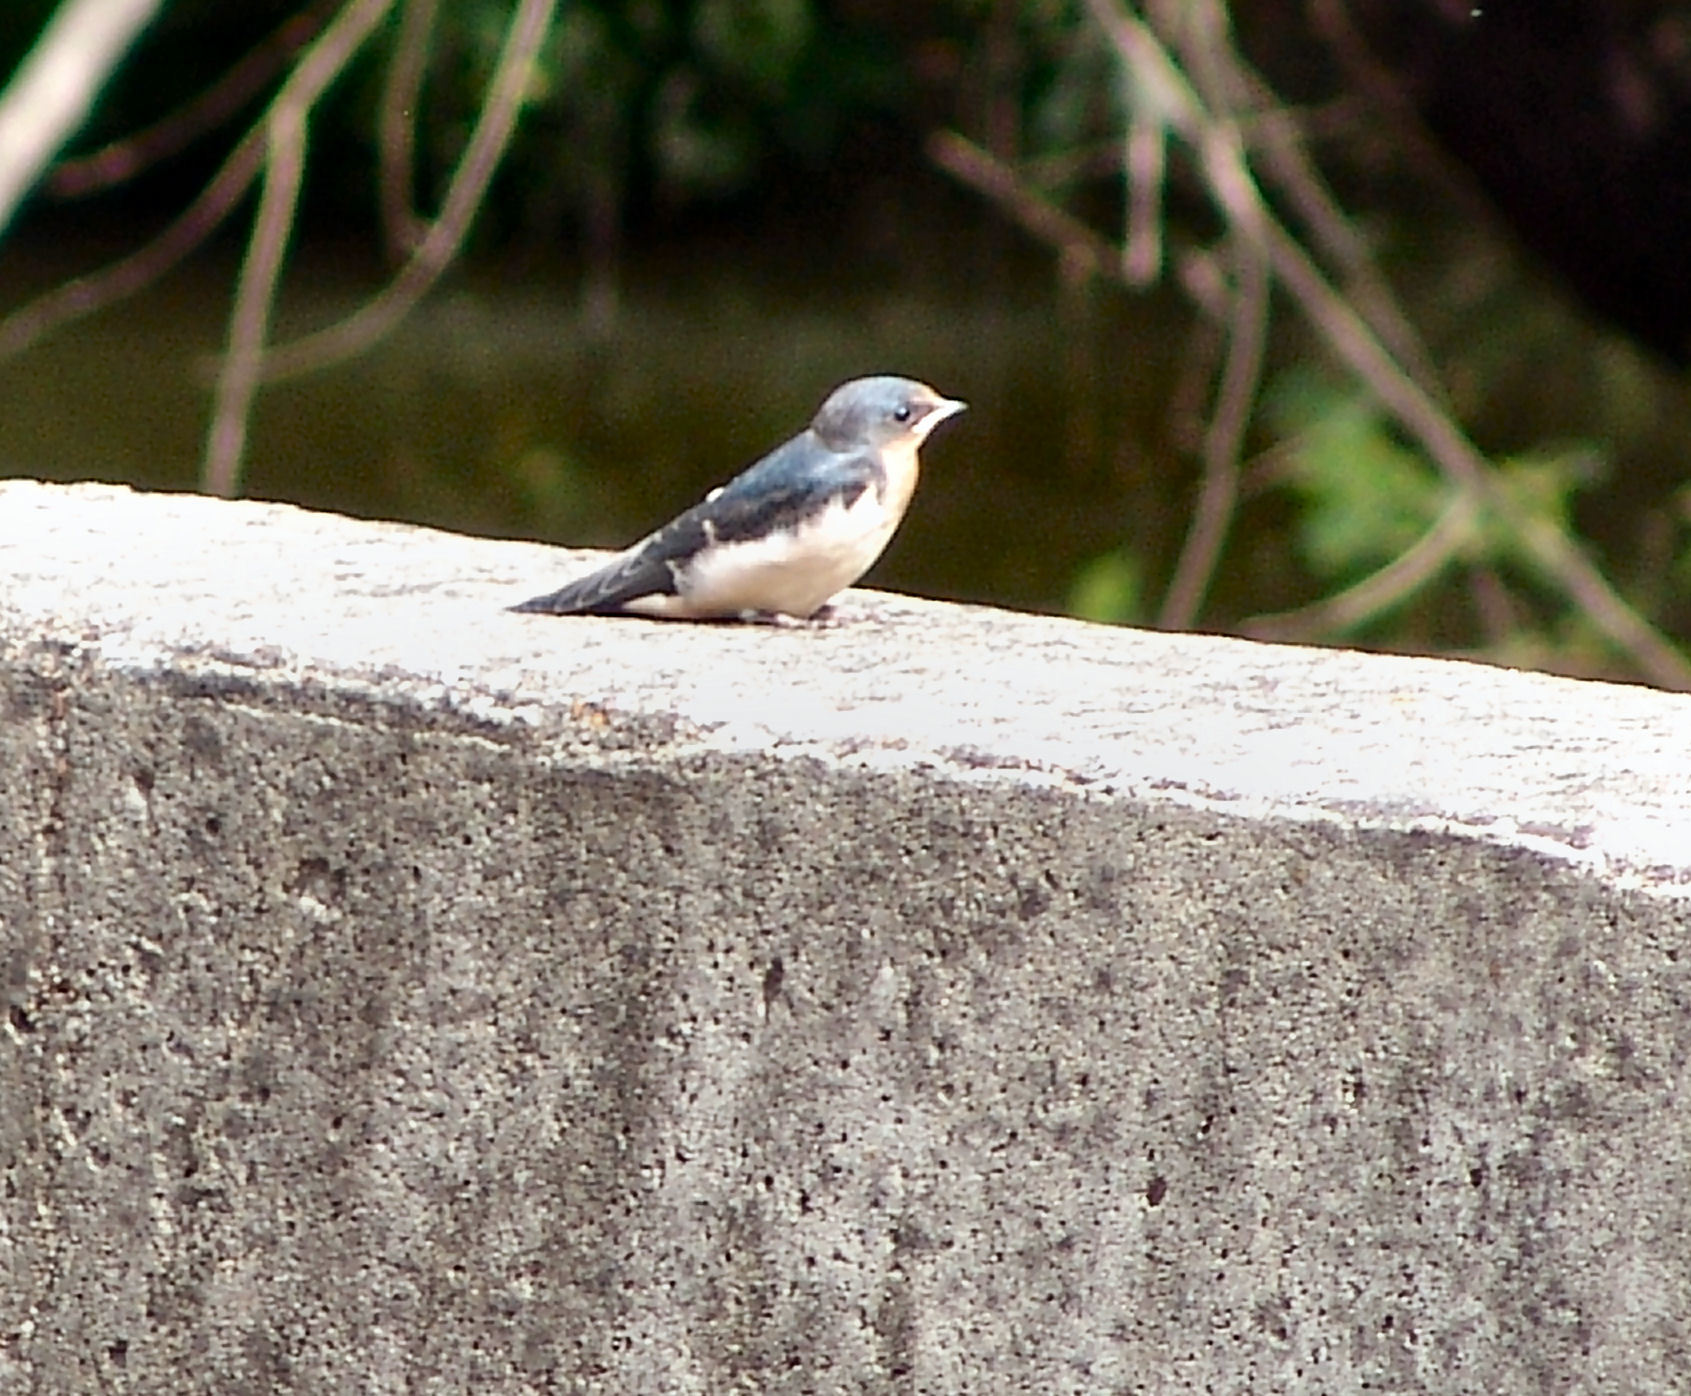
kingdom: Animalia
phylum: Chordata
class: Aves
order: Passeriformes
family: Hirundinidae
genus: Hirundo
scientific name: Hirundo rustica
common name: Barn swallow
